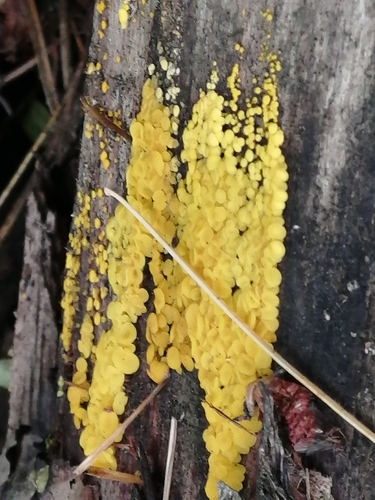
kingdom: Fungi
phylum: Ascomycota
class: Leotiomycetes
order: Helotiales
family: Pezizellaceae
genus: Calycina
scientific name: Calycina citrina
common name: Yellow fairy cups
